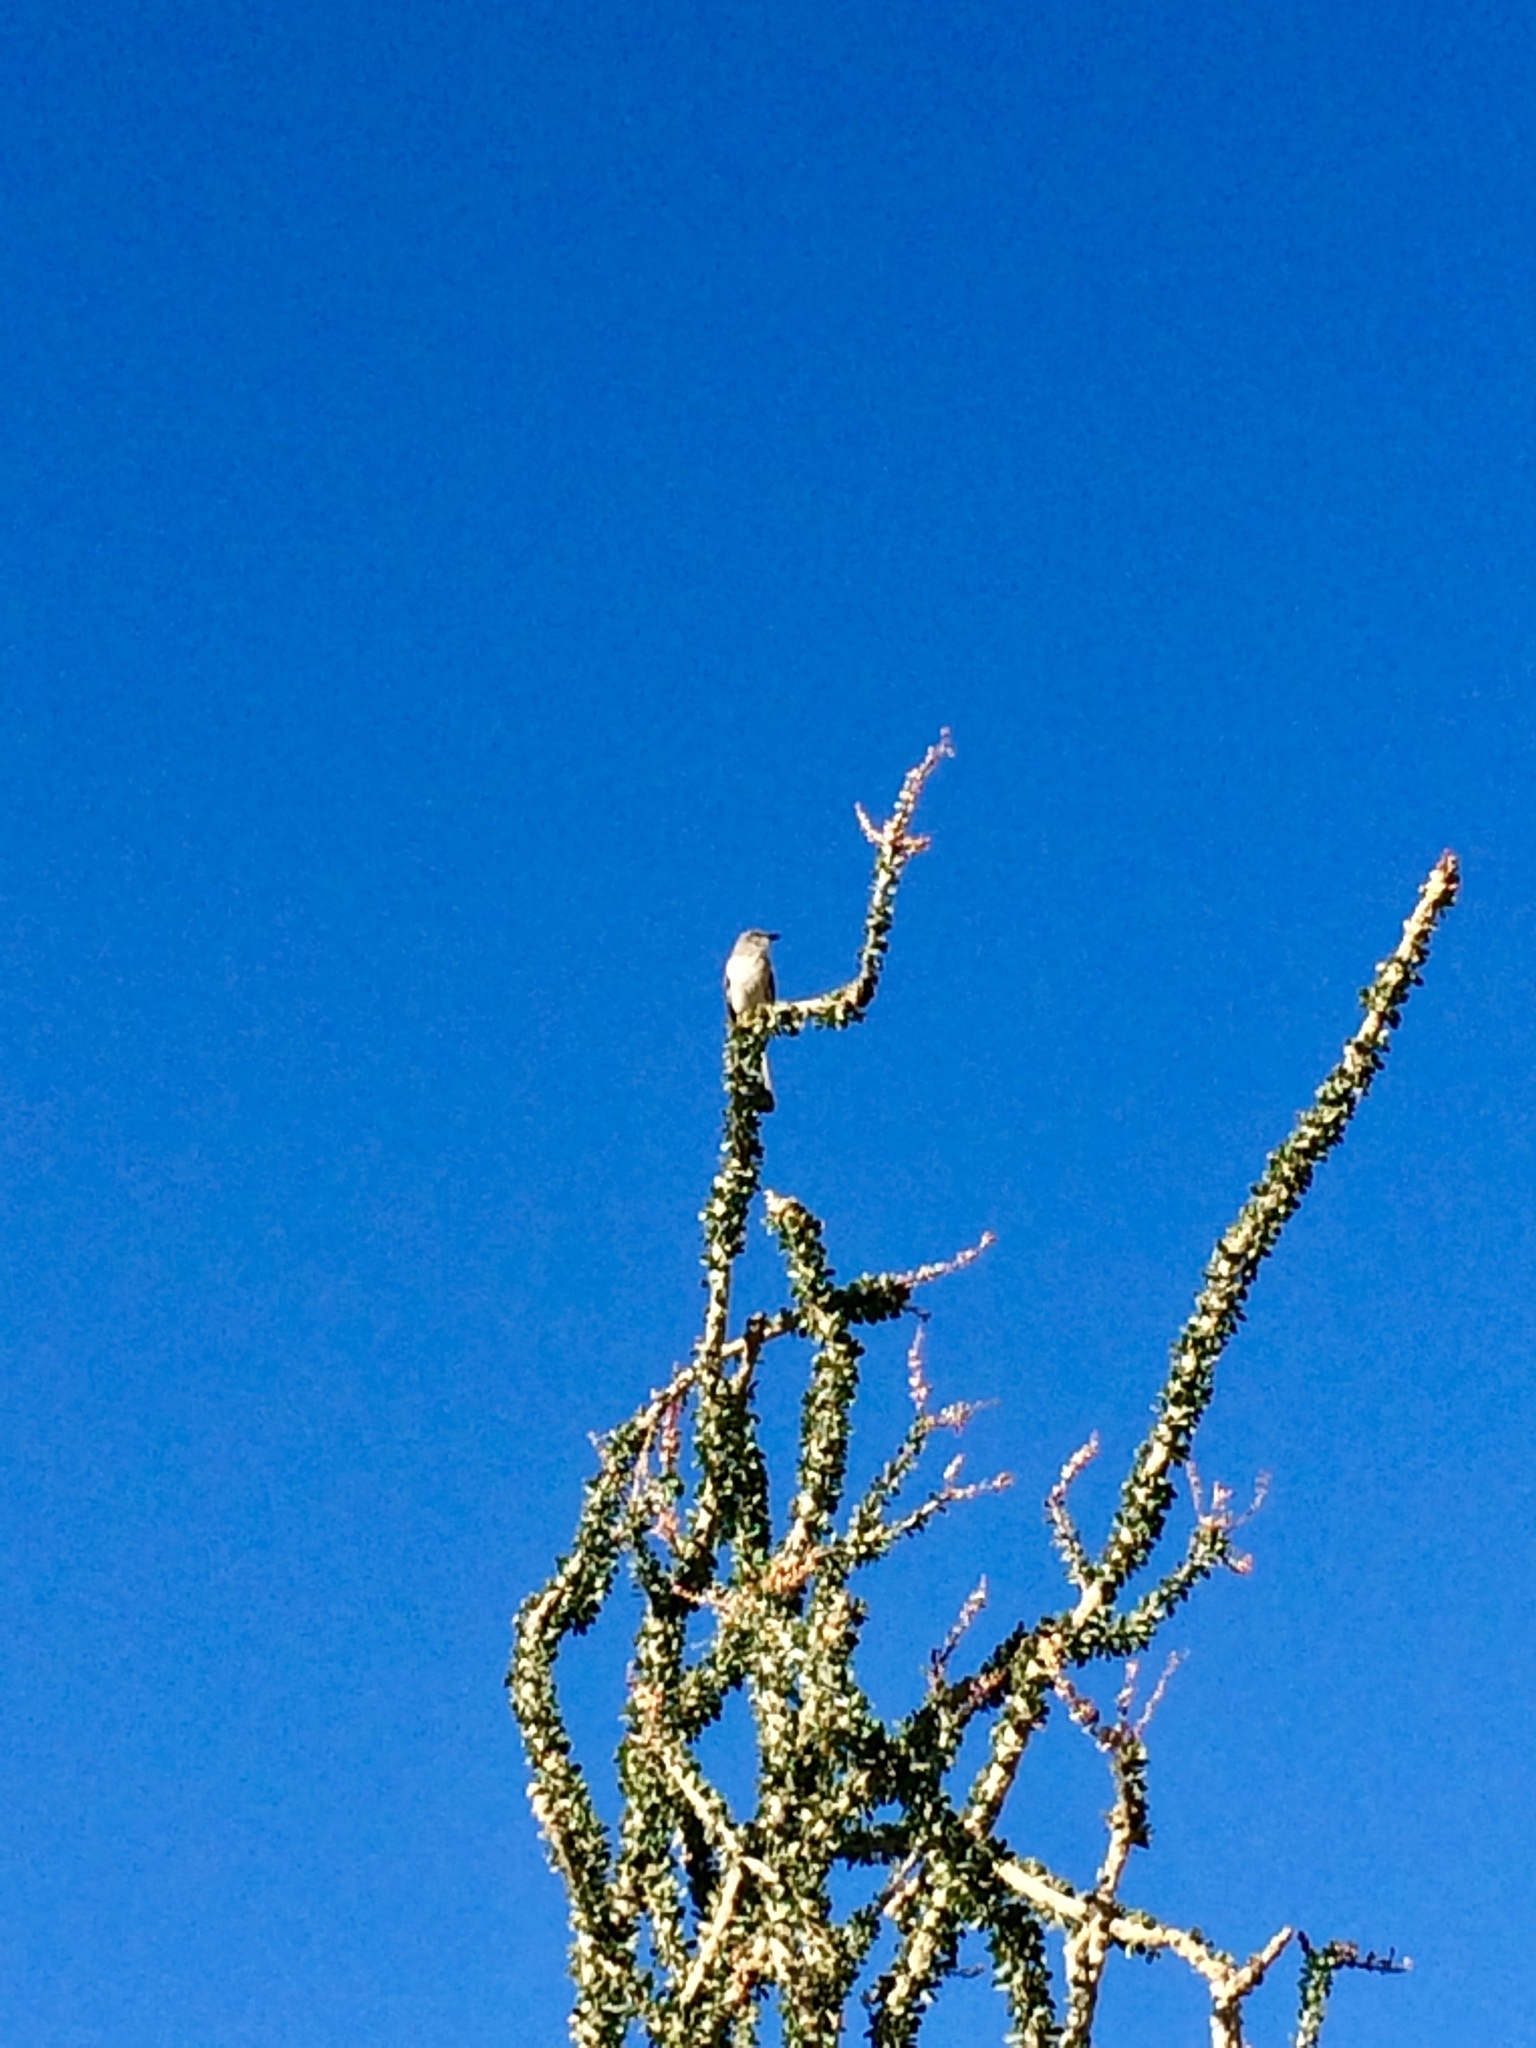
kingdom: Animalia
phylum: Chordata
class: Aves
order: Passeriformes
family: Mimidae
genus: Mimus
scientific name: Mimus polyglottos
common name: Northern mockingbird
